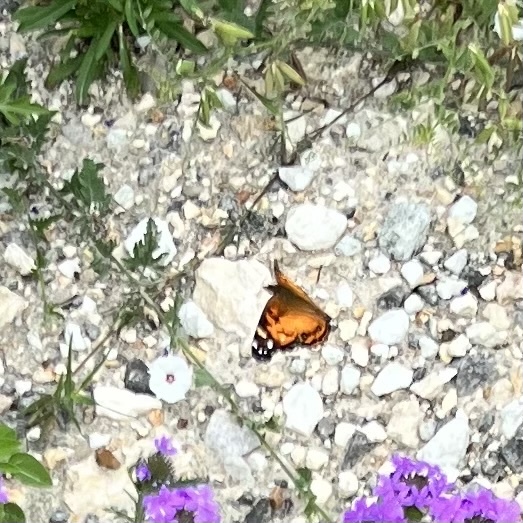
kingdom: Animalia
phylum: Arthropoda
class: Insecta
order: Lepidoptera
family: Nymphalidae
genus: Vanessa
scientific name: Vanessa virginiensis
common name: American lady
